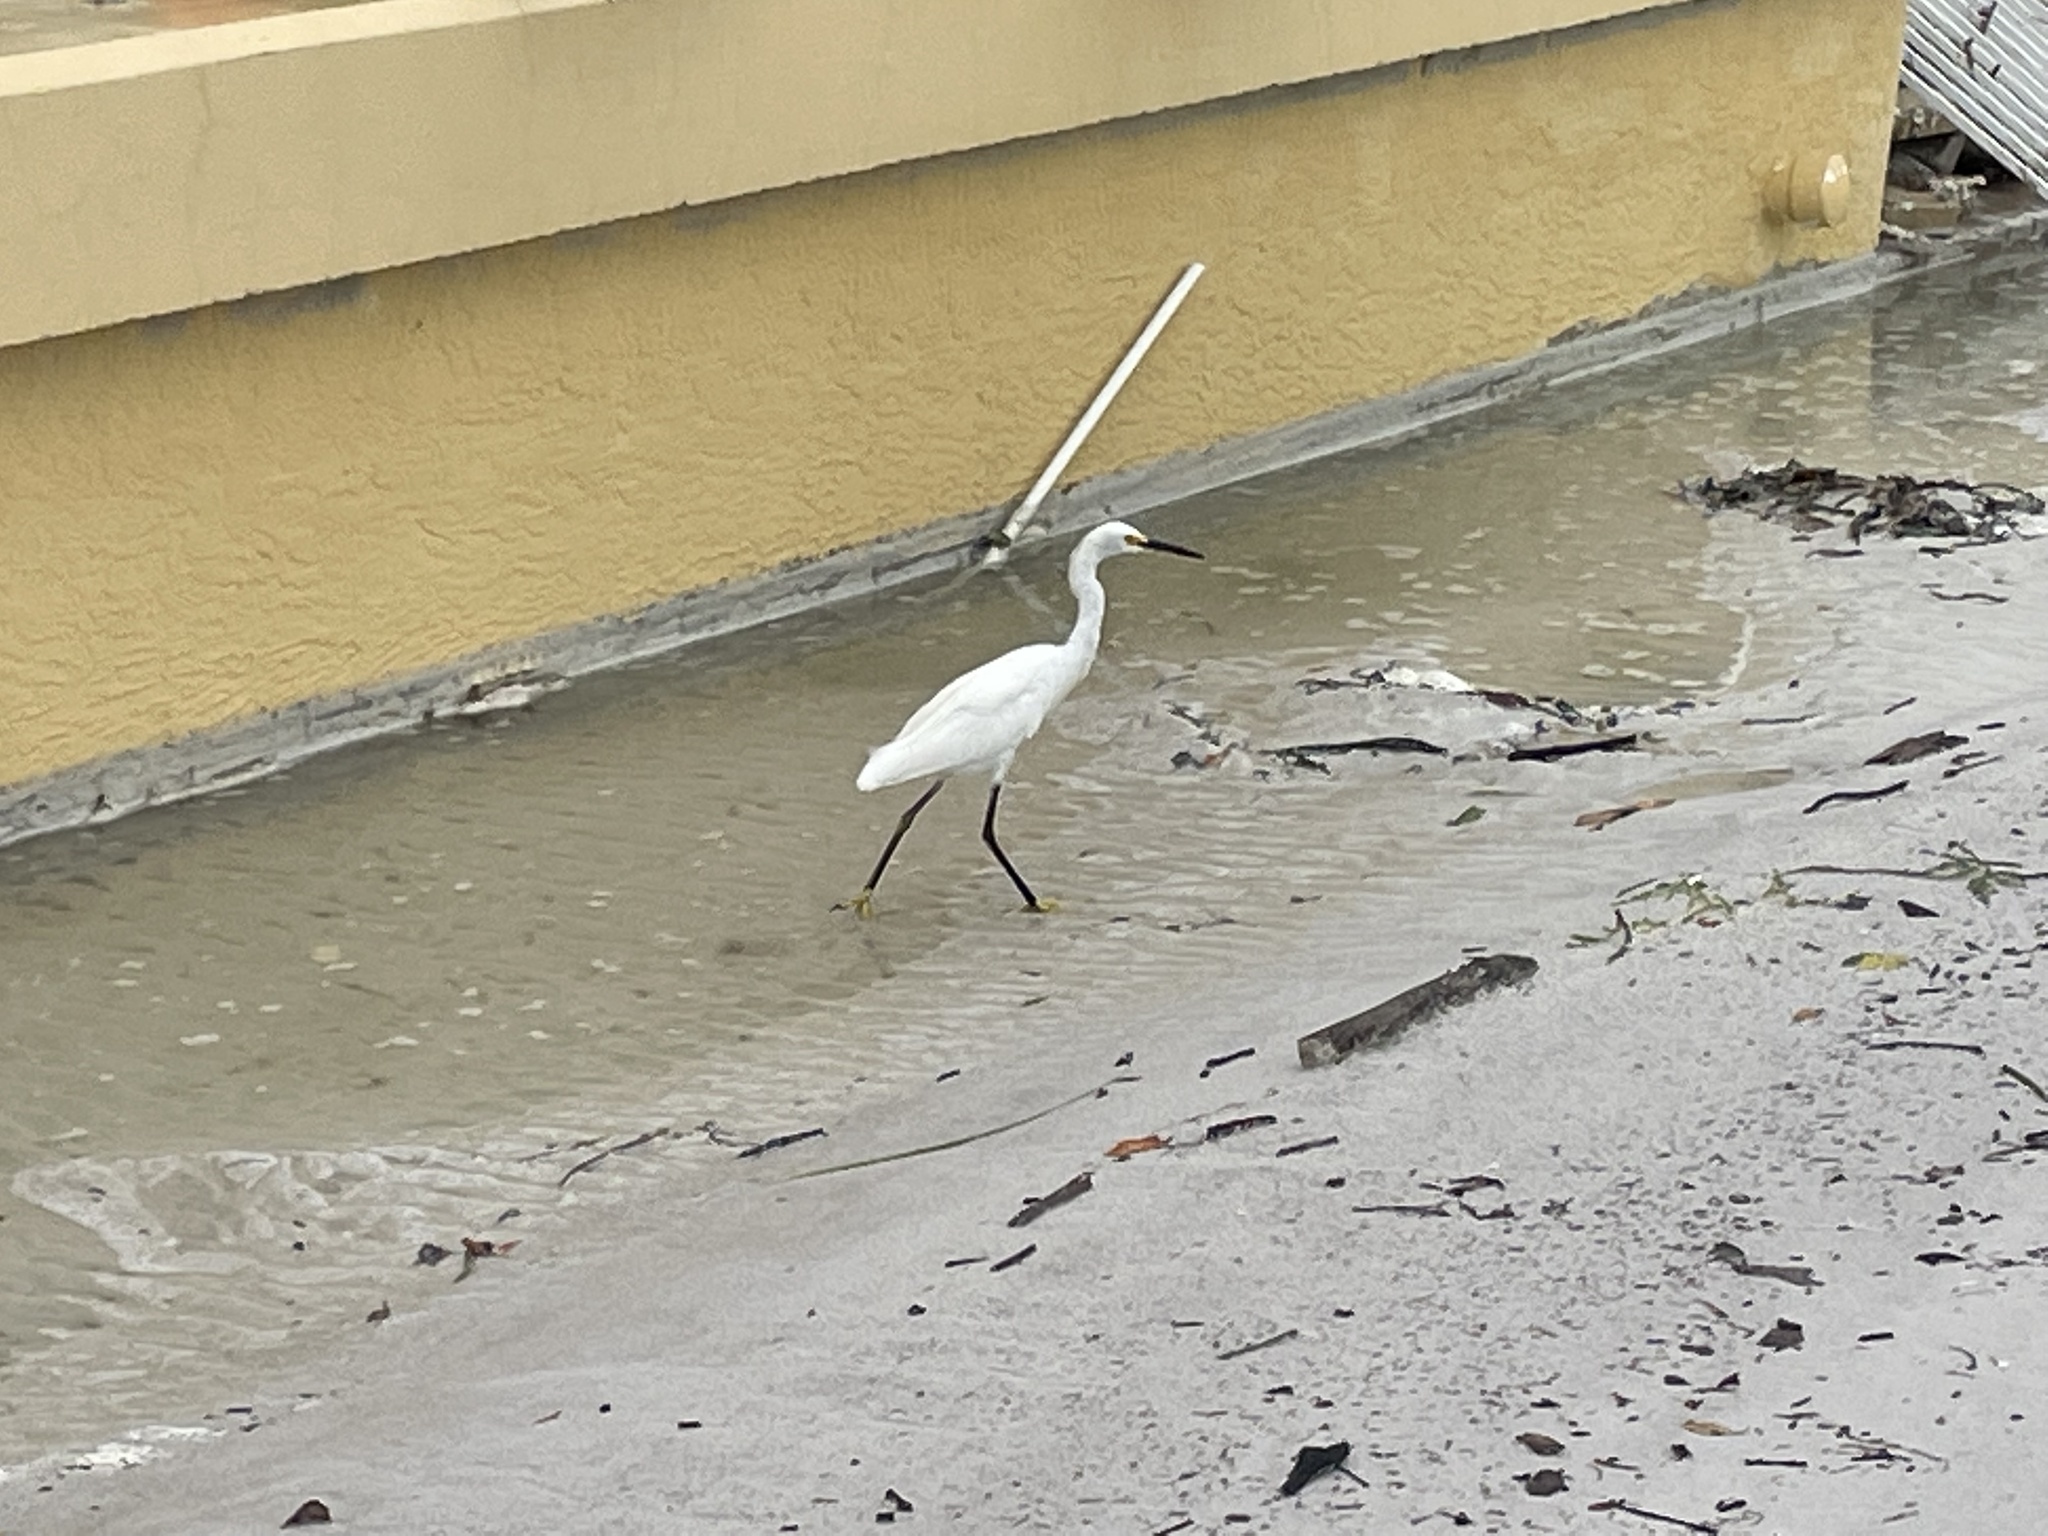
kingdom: Animalia
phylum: Chordata
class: Aves
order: Pelecaniformes
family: Ardeidae
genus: Egretta
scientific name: Egretta thula
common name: Snowy egret
